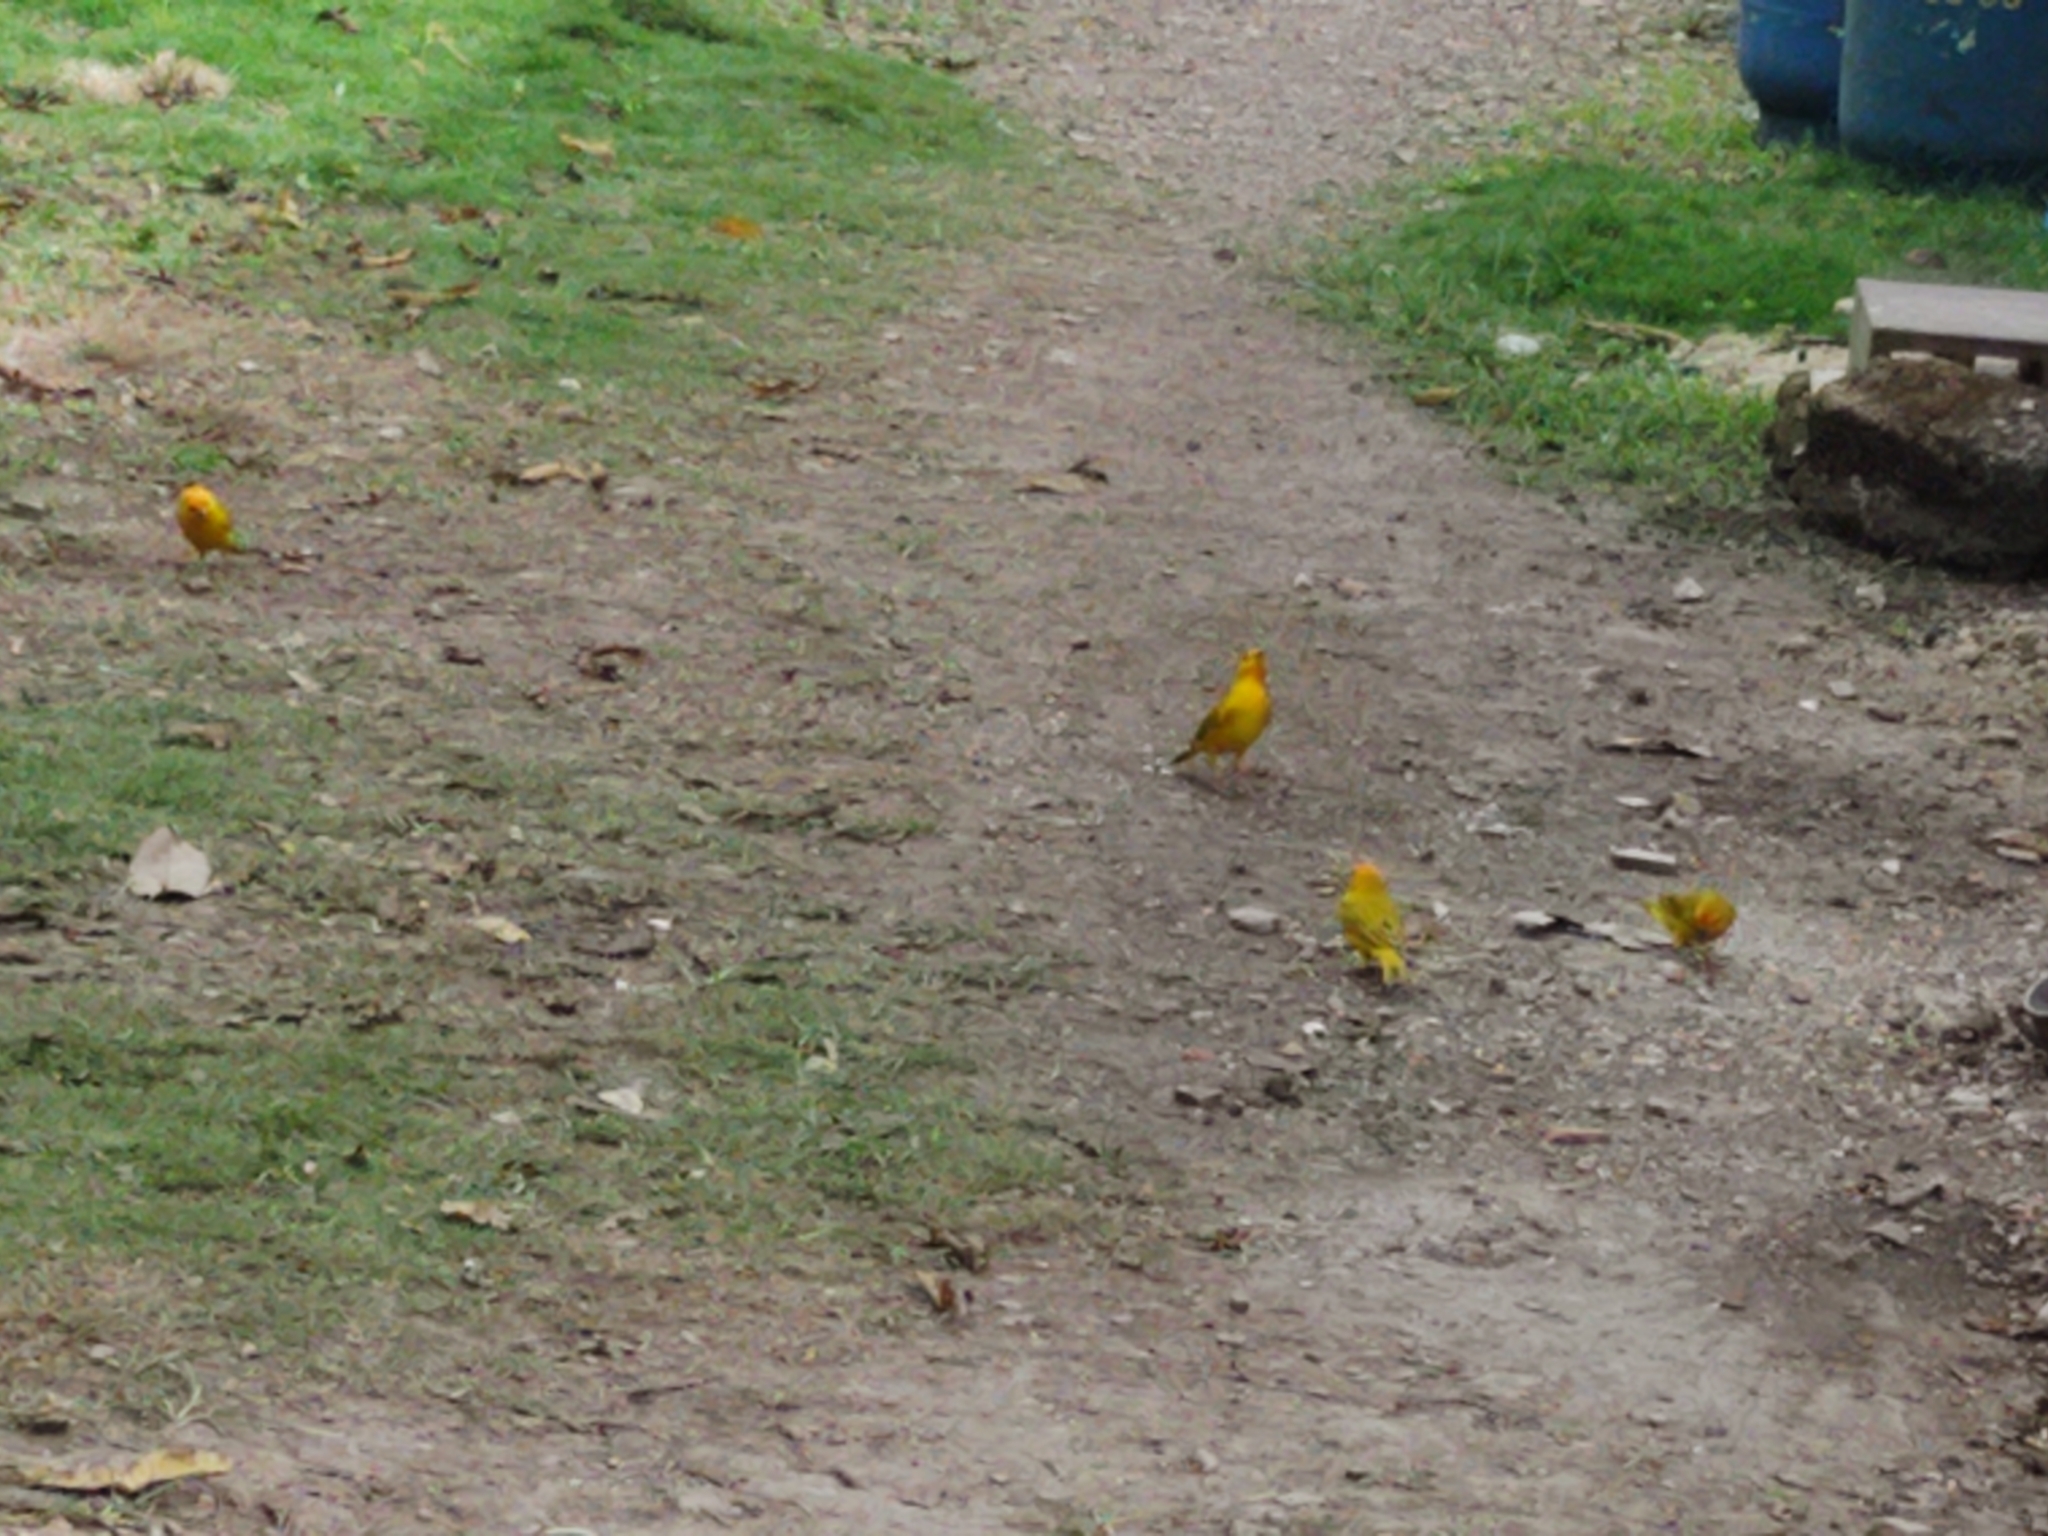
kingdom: Animalia
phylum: Chordata
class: Aves
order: Passeriformes
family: Thraupidae
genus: Sicalis
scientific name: Sicalis flaveola
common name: Saffron finch
